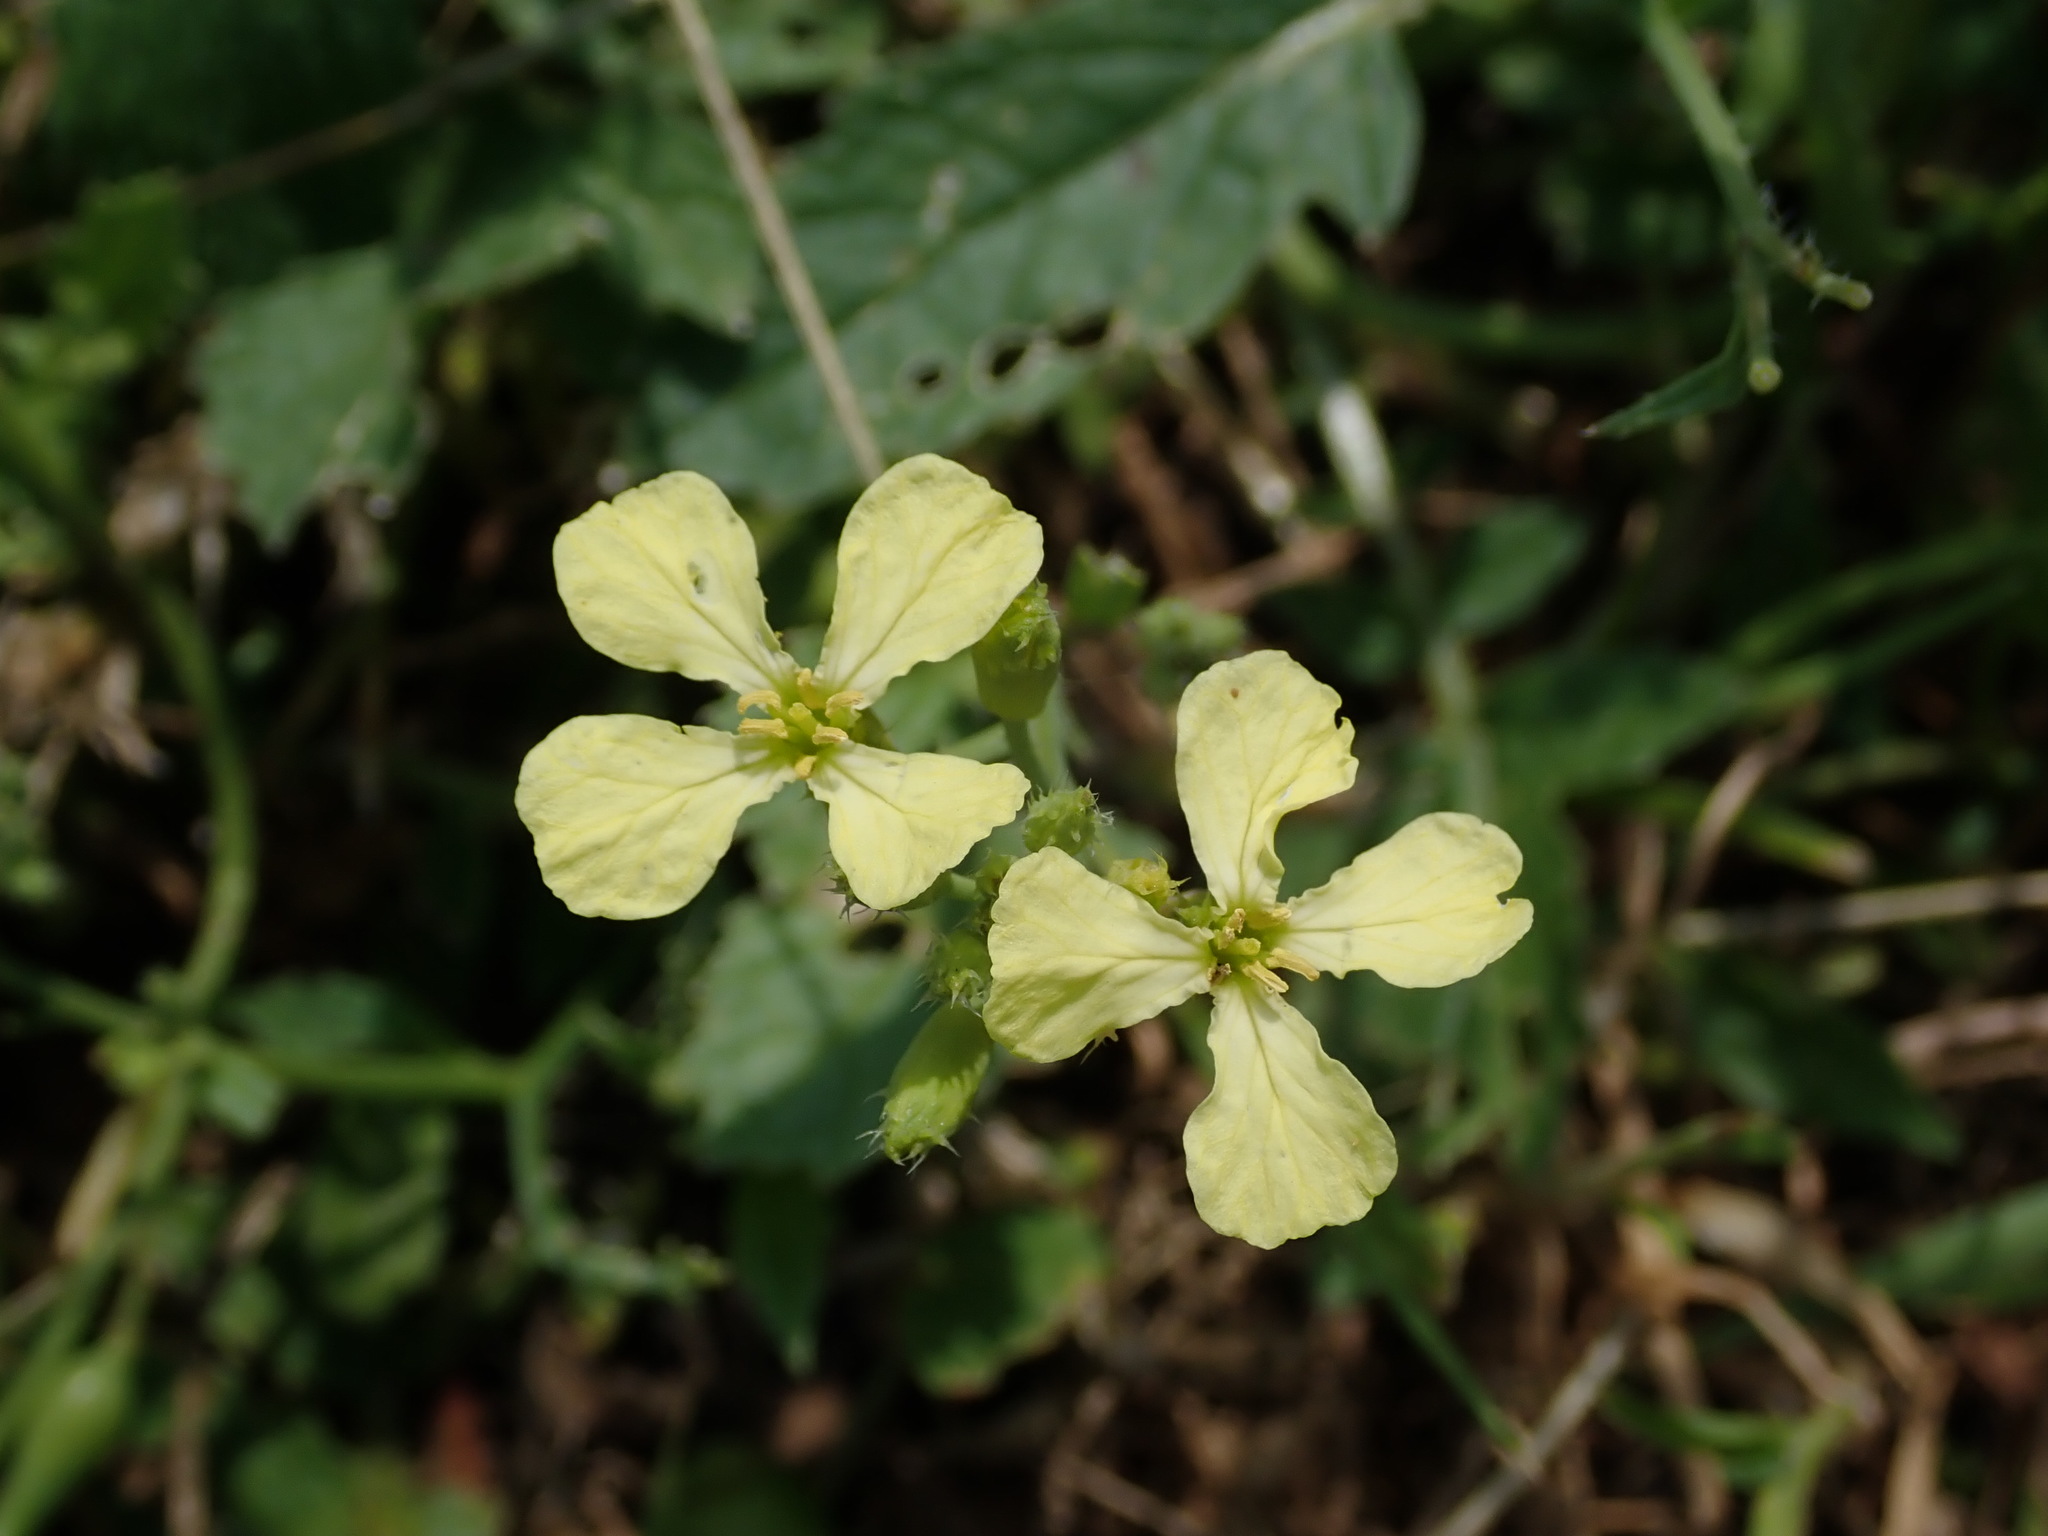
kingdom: Plantae
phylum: Tracheophyta
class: Magnoliopsida
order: Brassicales
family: Brassicaceae
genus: Raphanus
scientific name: Raphanus raphanistrum
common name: Wild radish
